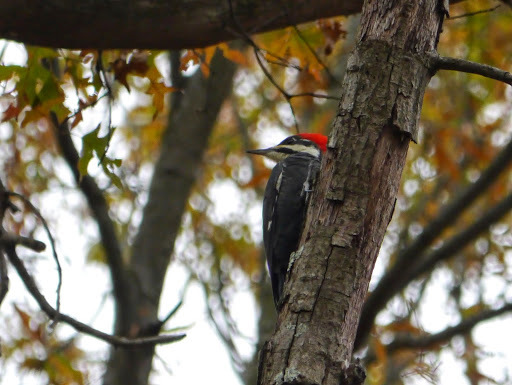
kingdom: Animalia
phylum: Chordata
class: Aves
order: Piciformes
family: Picidae
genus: Dryocopus
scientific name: Dryocopus pileatus
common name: Pileated woodpecker
